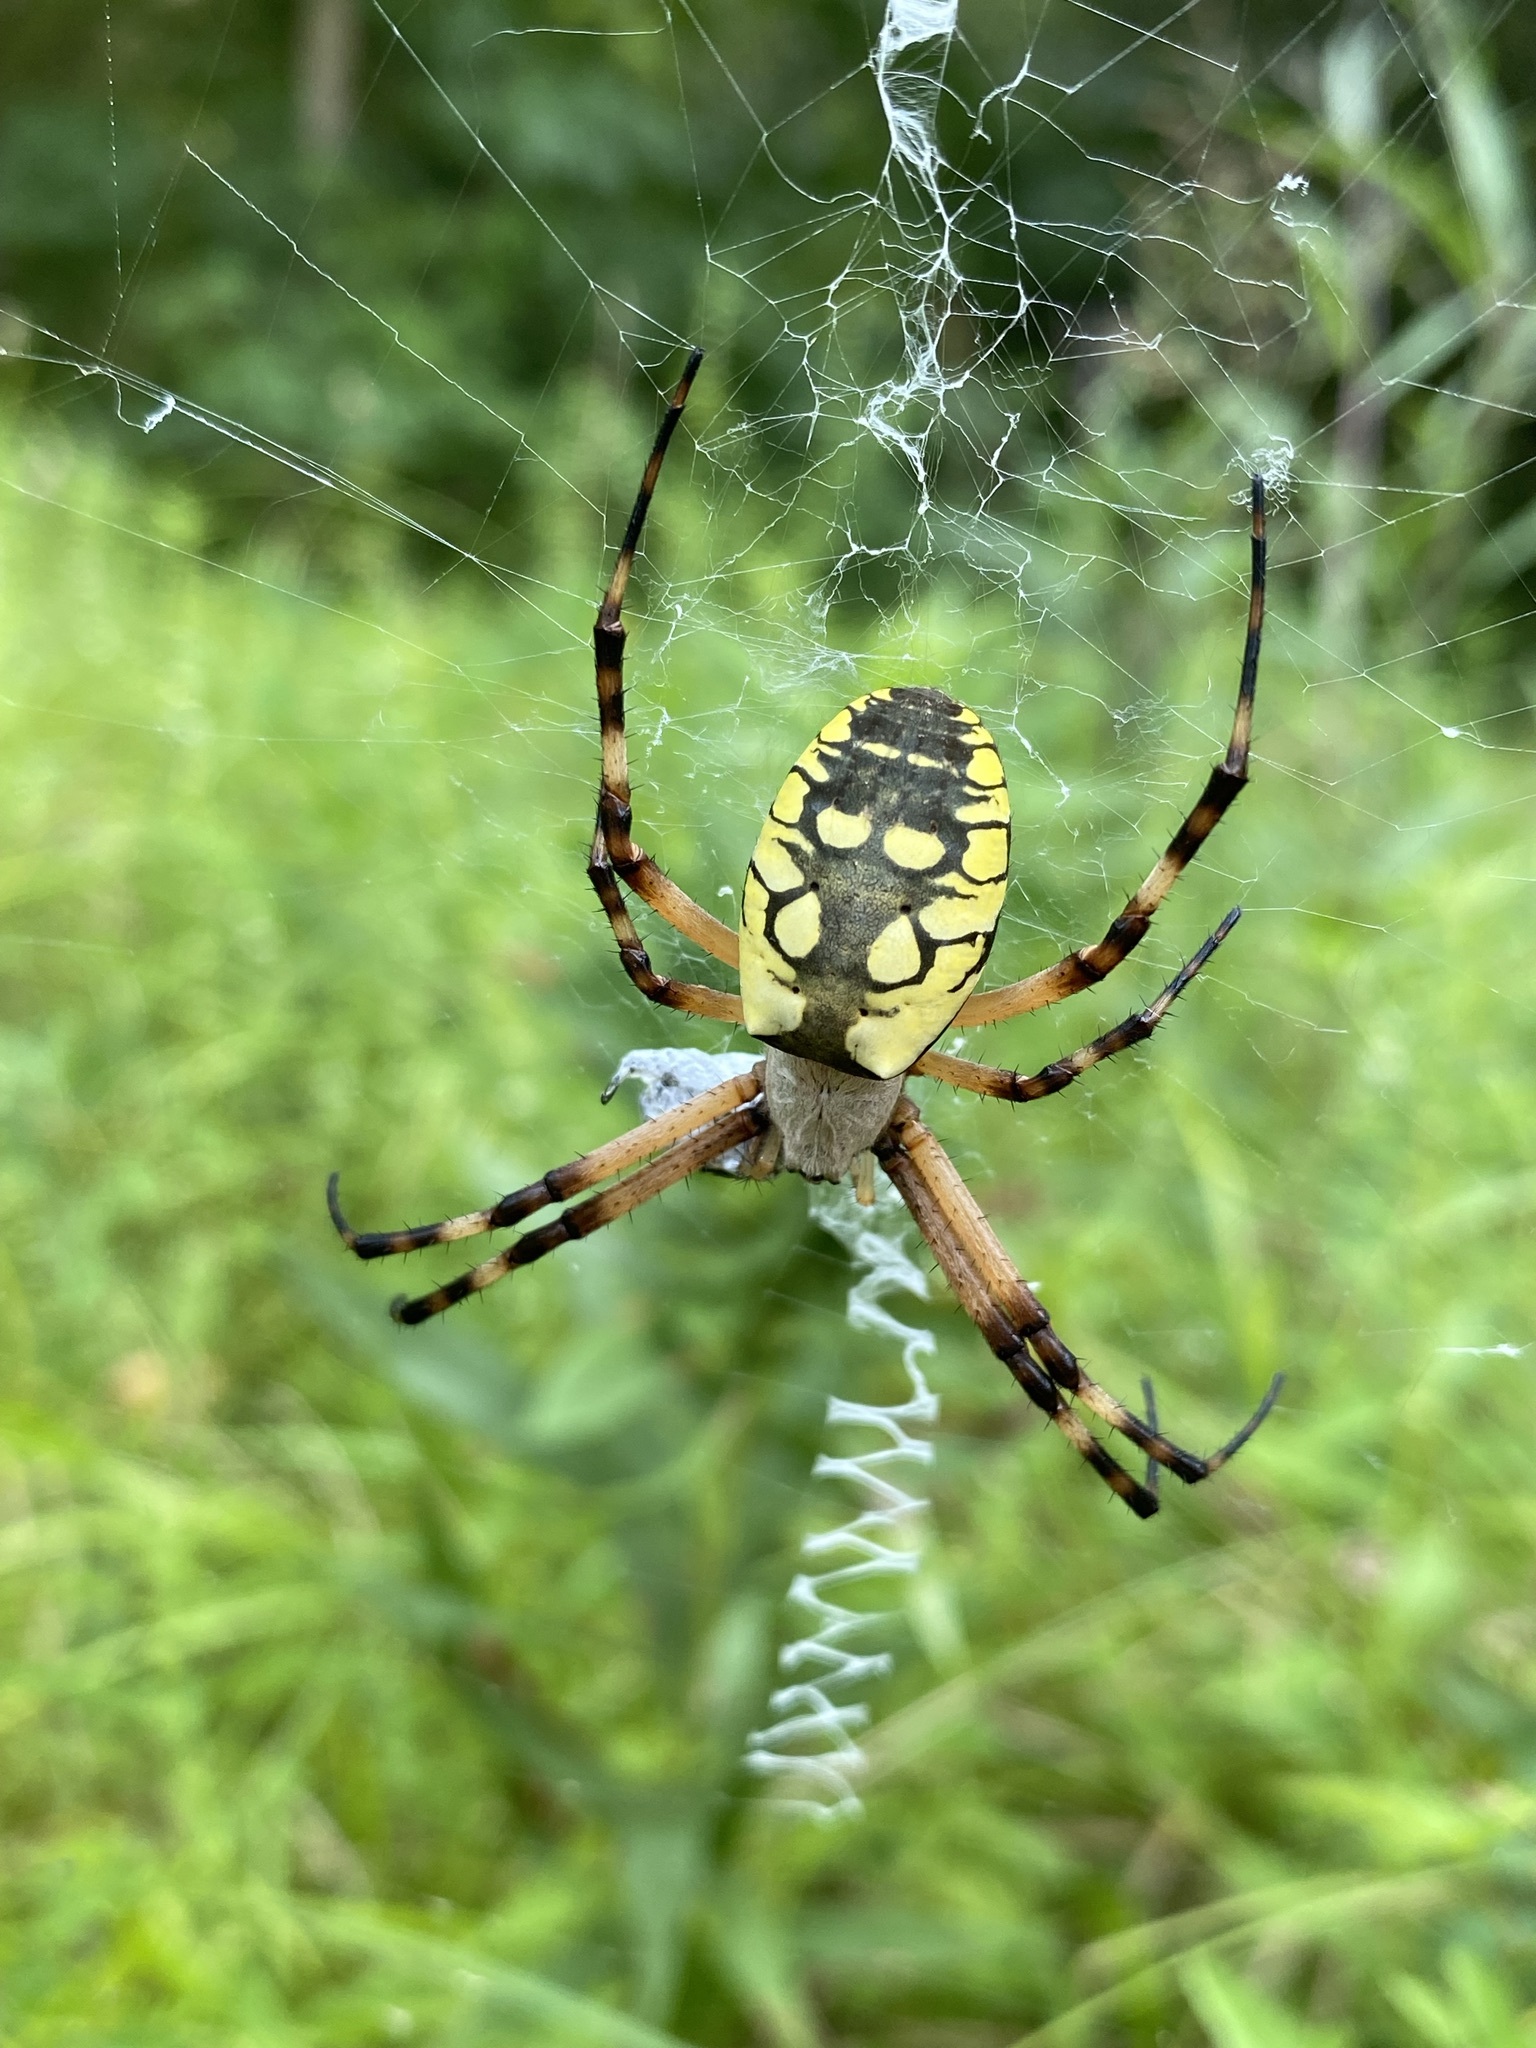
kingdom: Animalia
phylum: Arthropoda
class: Arachnida
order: Araneae
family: Araneidae
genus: Argiope
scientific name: Argiope aurantia
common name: Orb weavers
